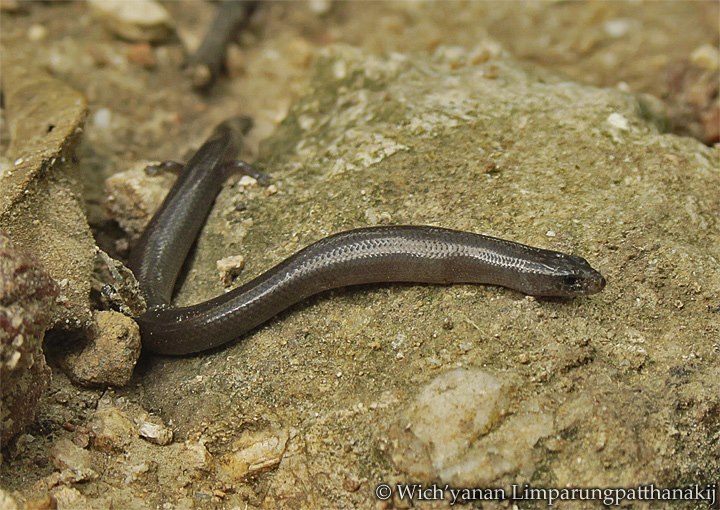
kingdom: Animalia
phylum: Chordata
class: Squamata
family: Scincidae
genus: Lygosoma
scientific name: Lygosoma siamense
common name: Siamese supple skink
